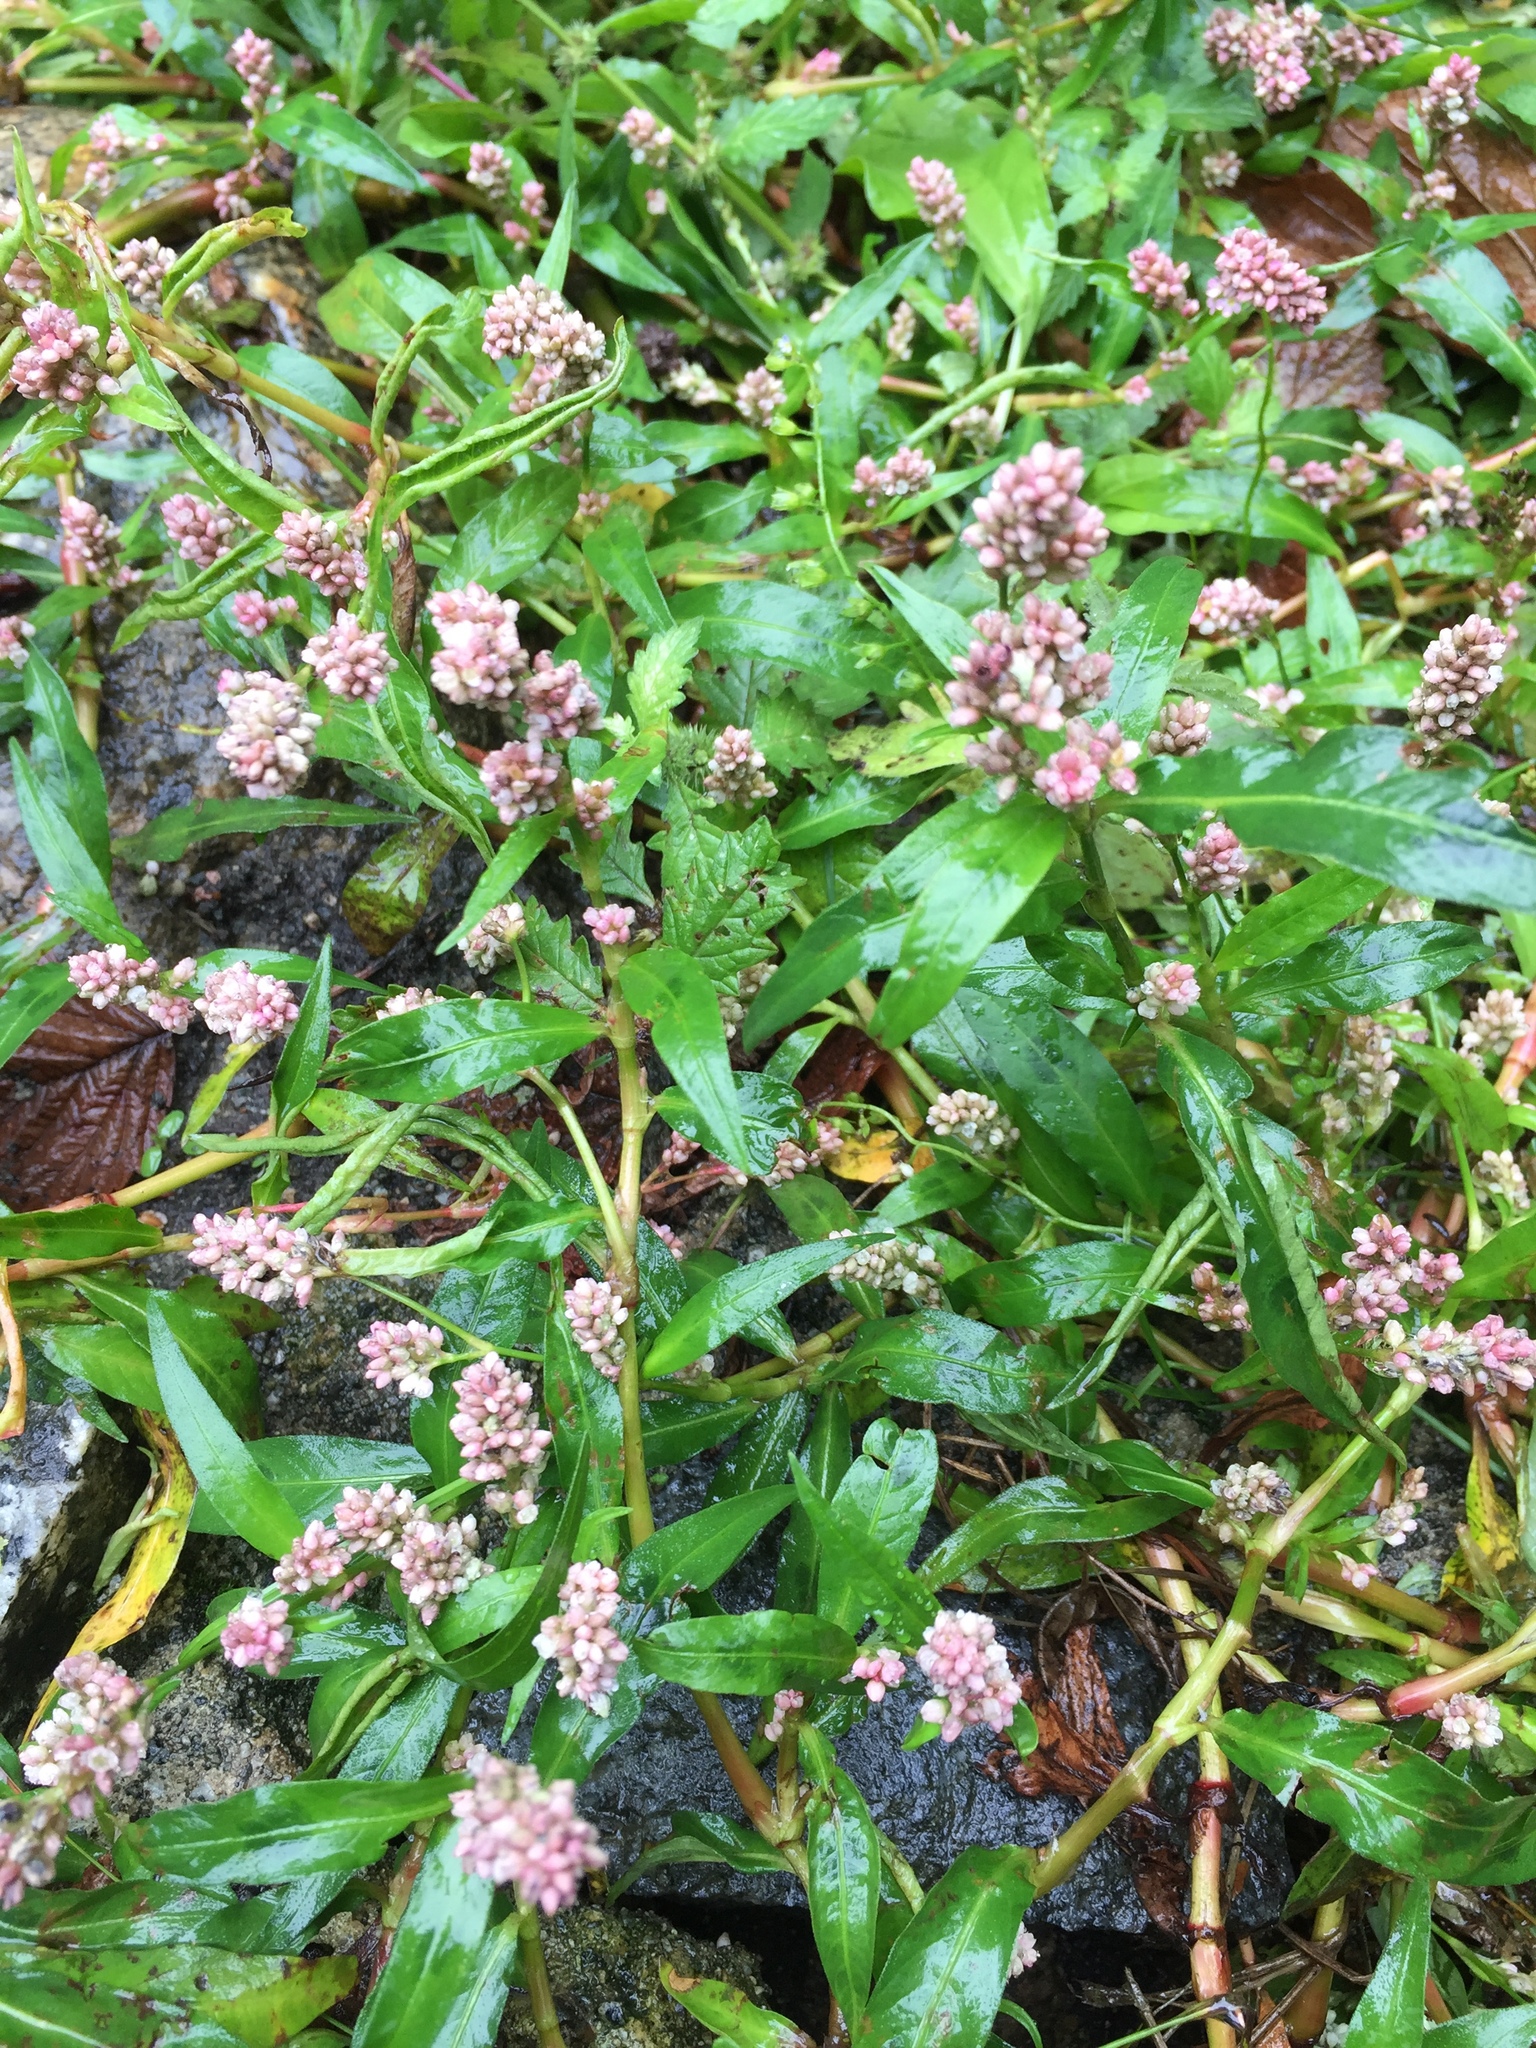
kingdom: Plantae
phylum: Tracheophyta
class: Magnoliopsida
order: Caryophyllales
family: Polygonaceae
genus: Persicaria
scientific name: Persicaria maculosa
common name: Redshank
